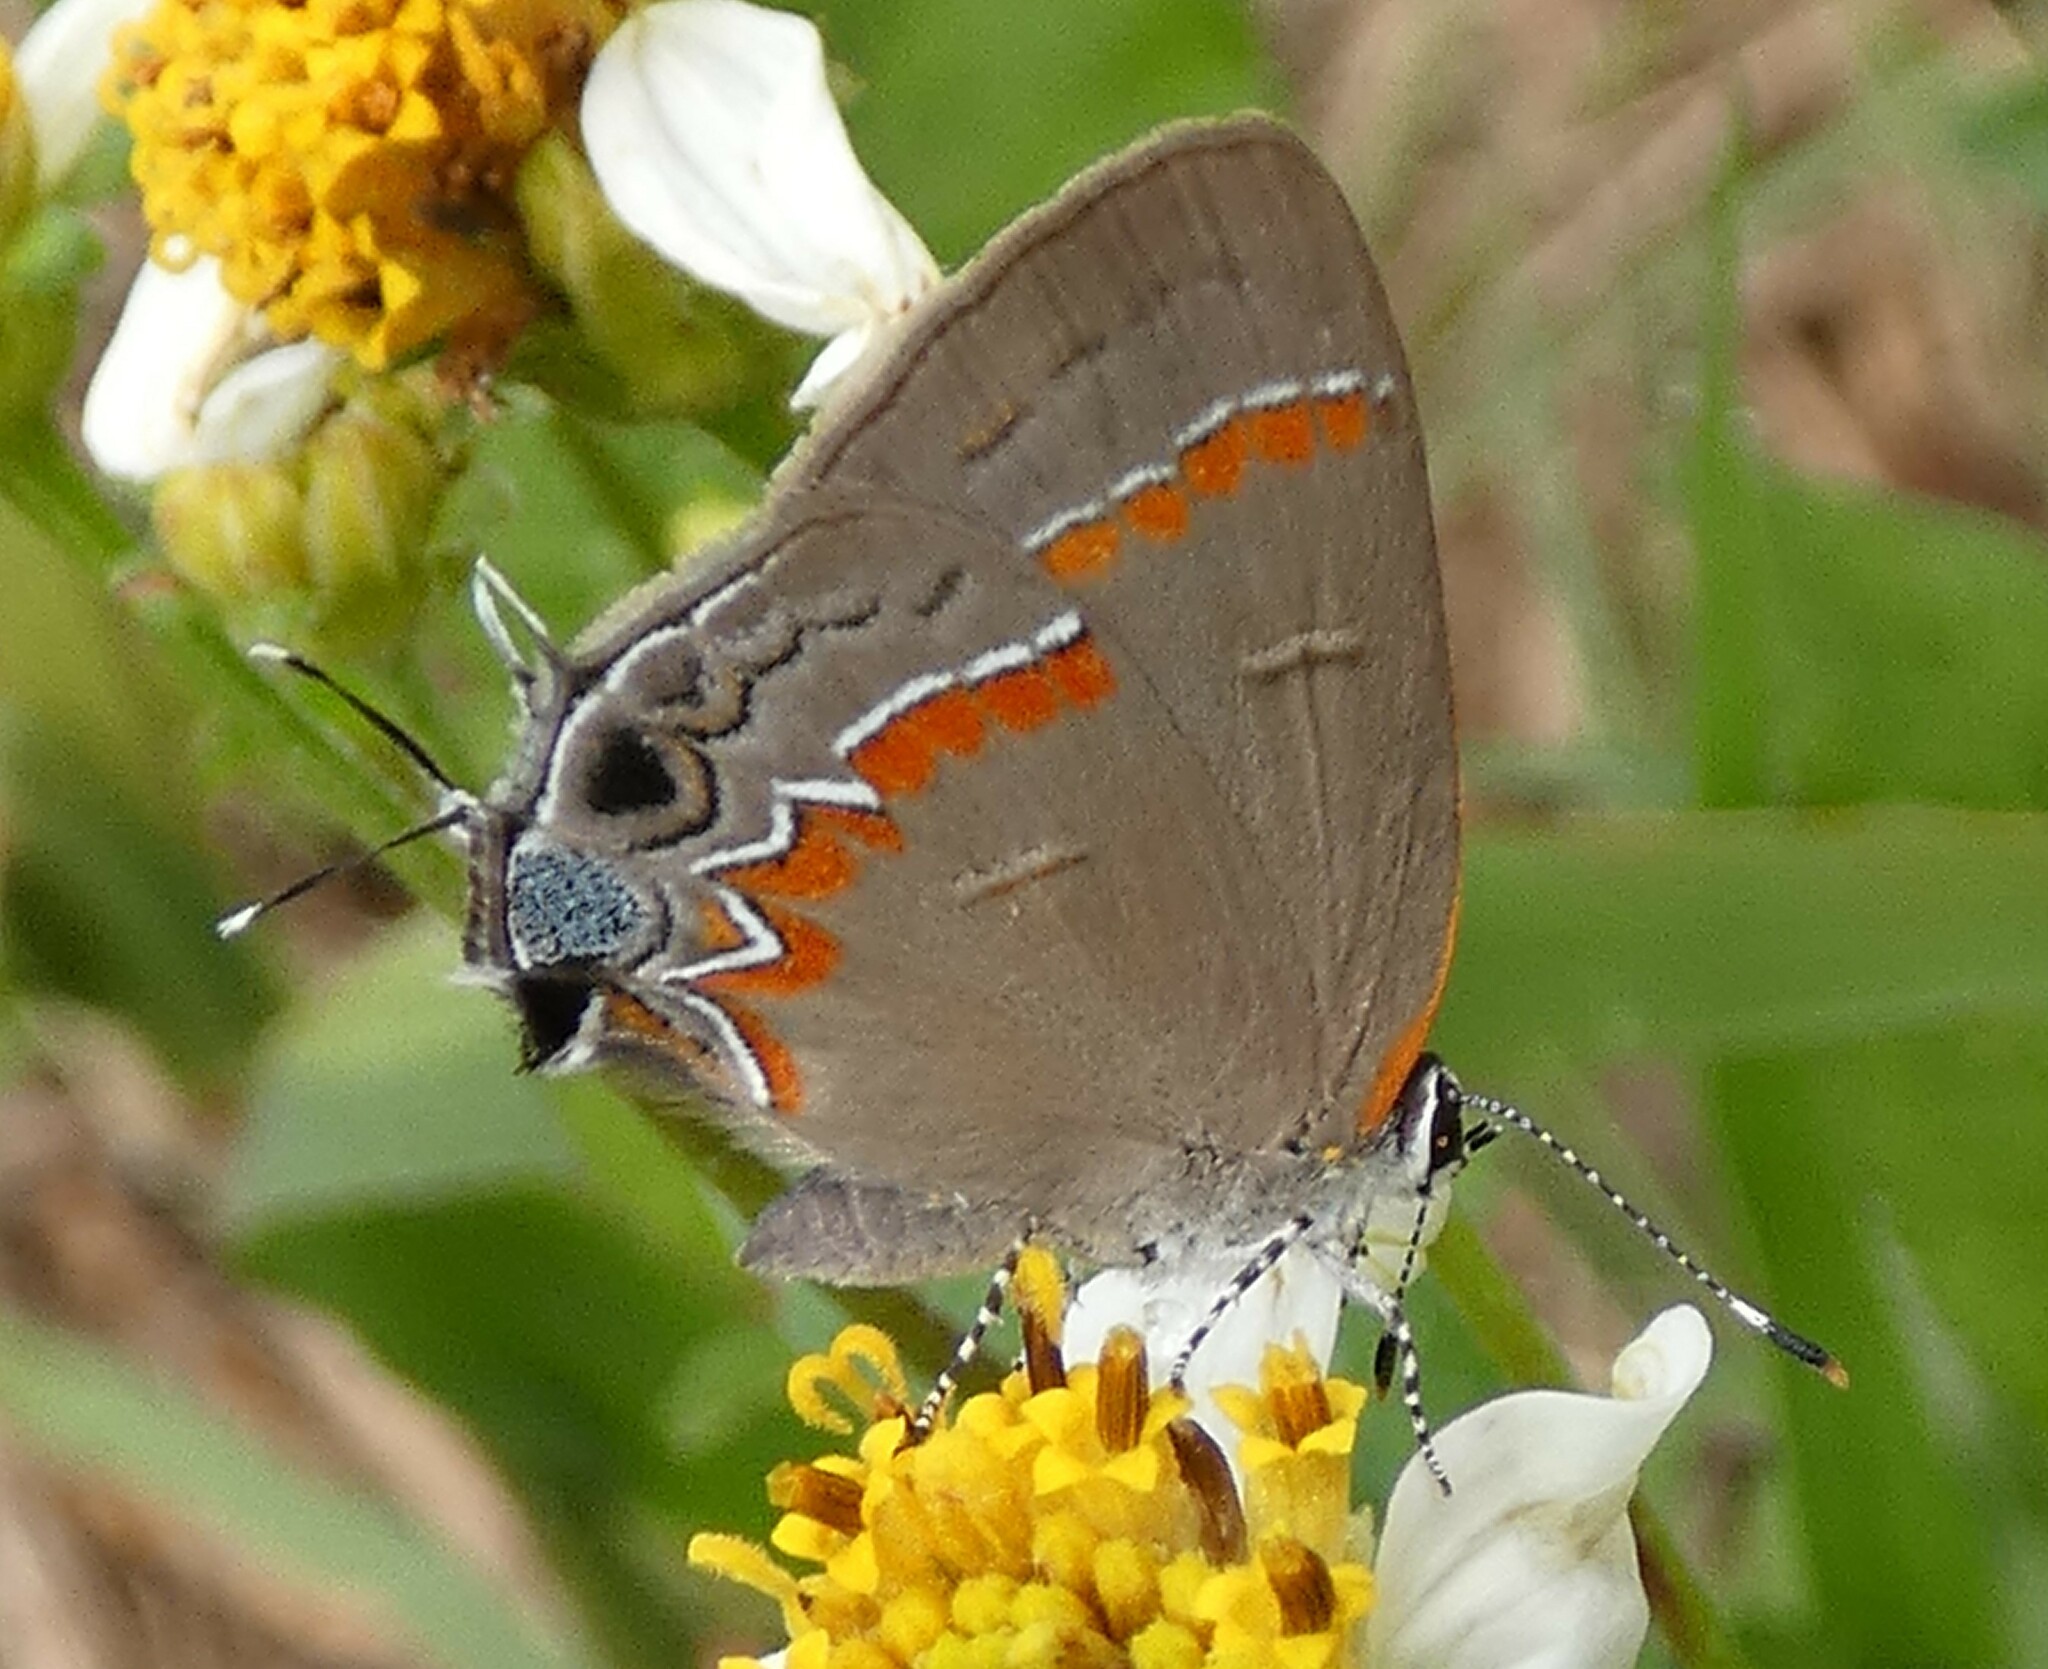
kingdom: Animalia
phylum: Arthropoda
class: Insecta
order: Lepidoptera
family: Lycaenidae
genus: Calycopis
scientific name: Calycopis cecrops
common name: Red-banded hairstreak
